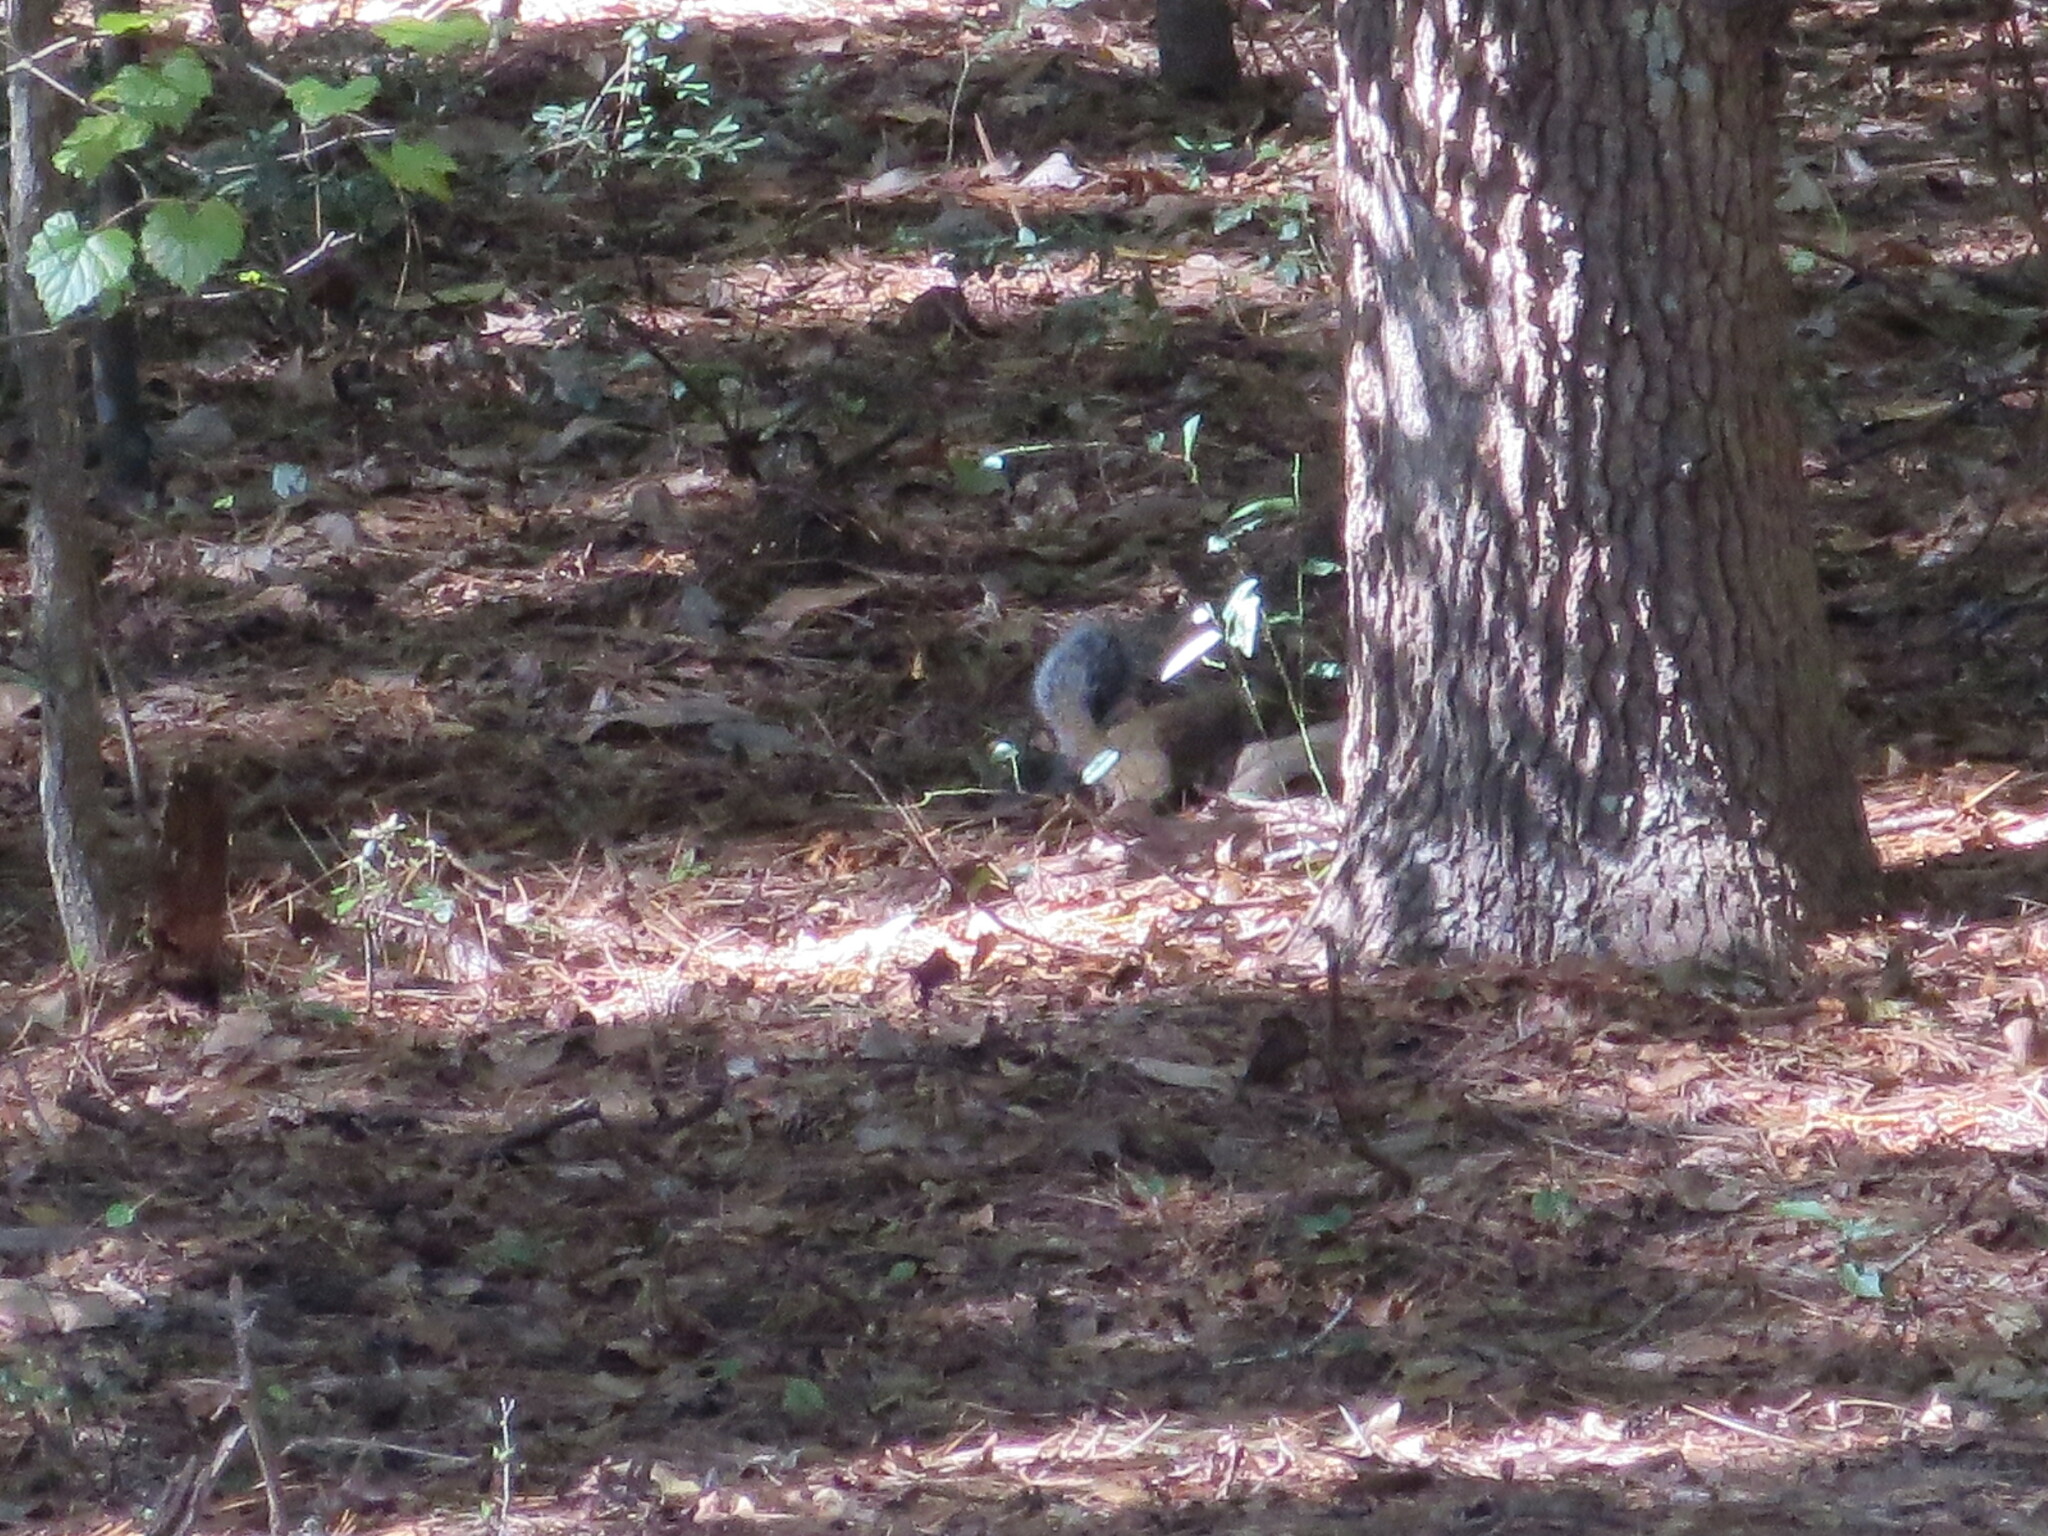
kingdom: Animalia
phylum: Chordata
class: Mammalia
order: Rodentia
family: Sciuridae
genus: Sciurus
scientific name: Sciurus carolinensis
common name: Eastern gray squirrel
